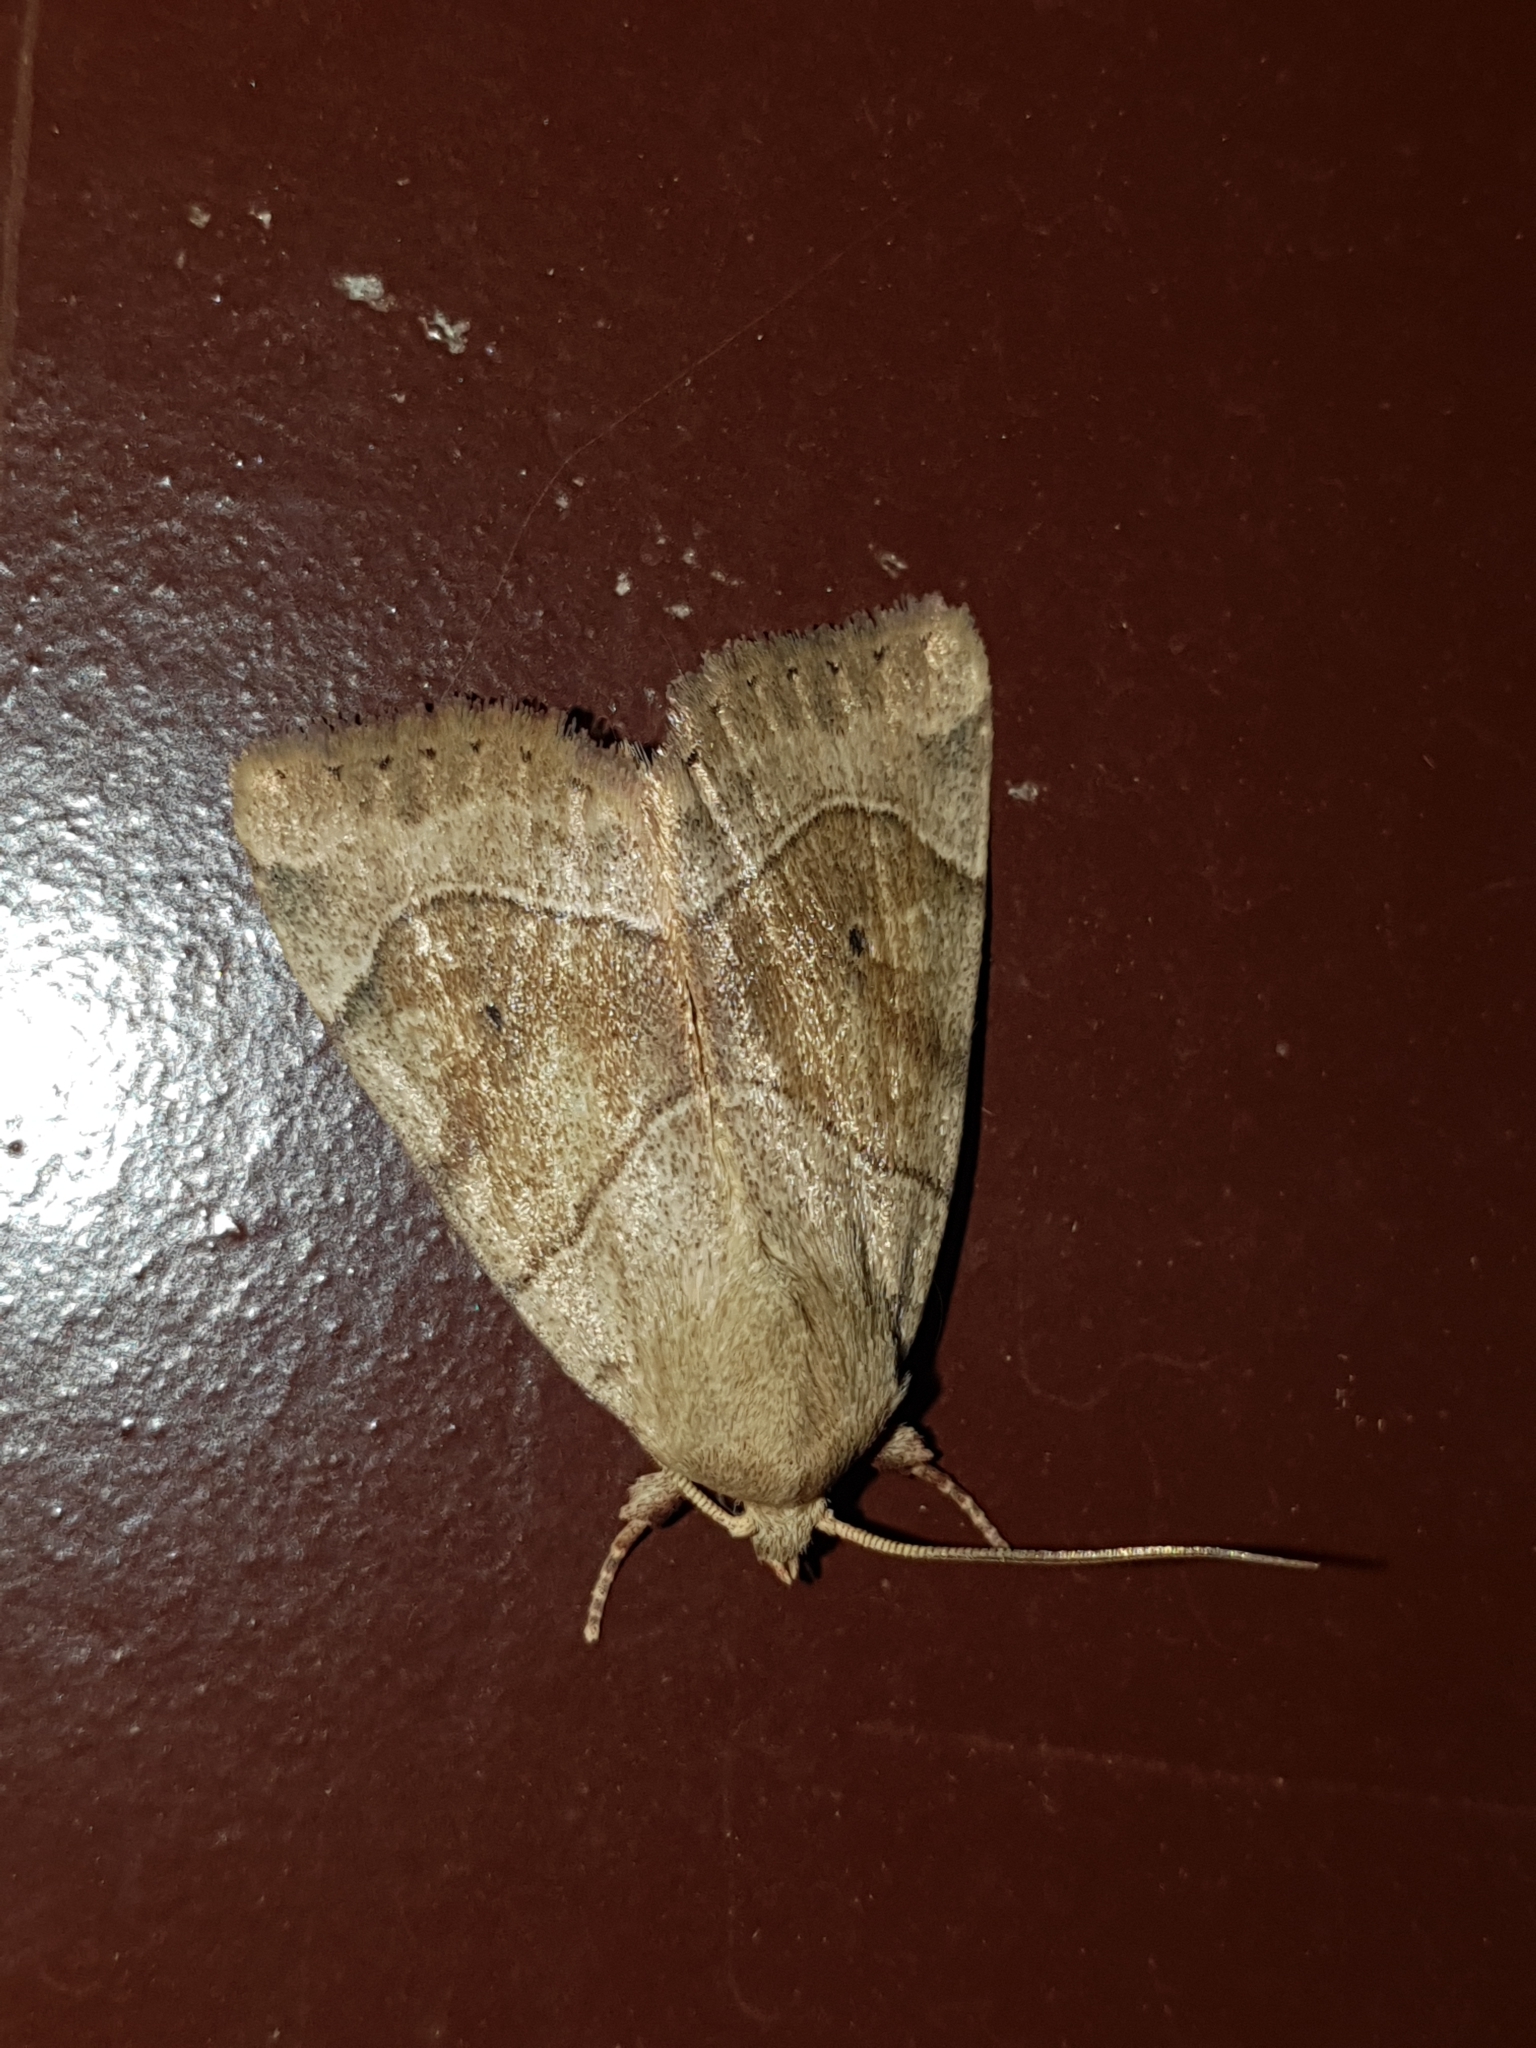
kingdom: Animalia
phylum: Arthropoda
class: Insecta
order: Lepidoptera
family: Noctuidae
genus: Cosmia
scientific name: Cosmia trapezina
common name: Dun-bar
